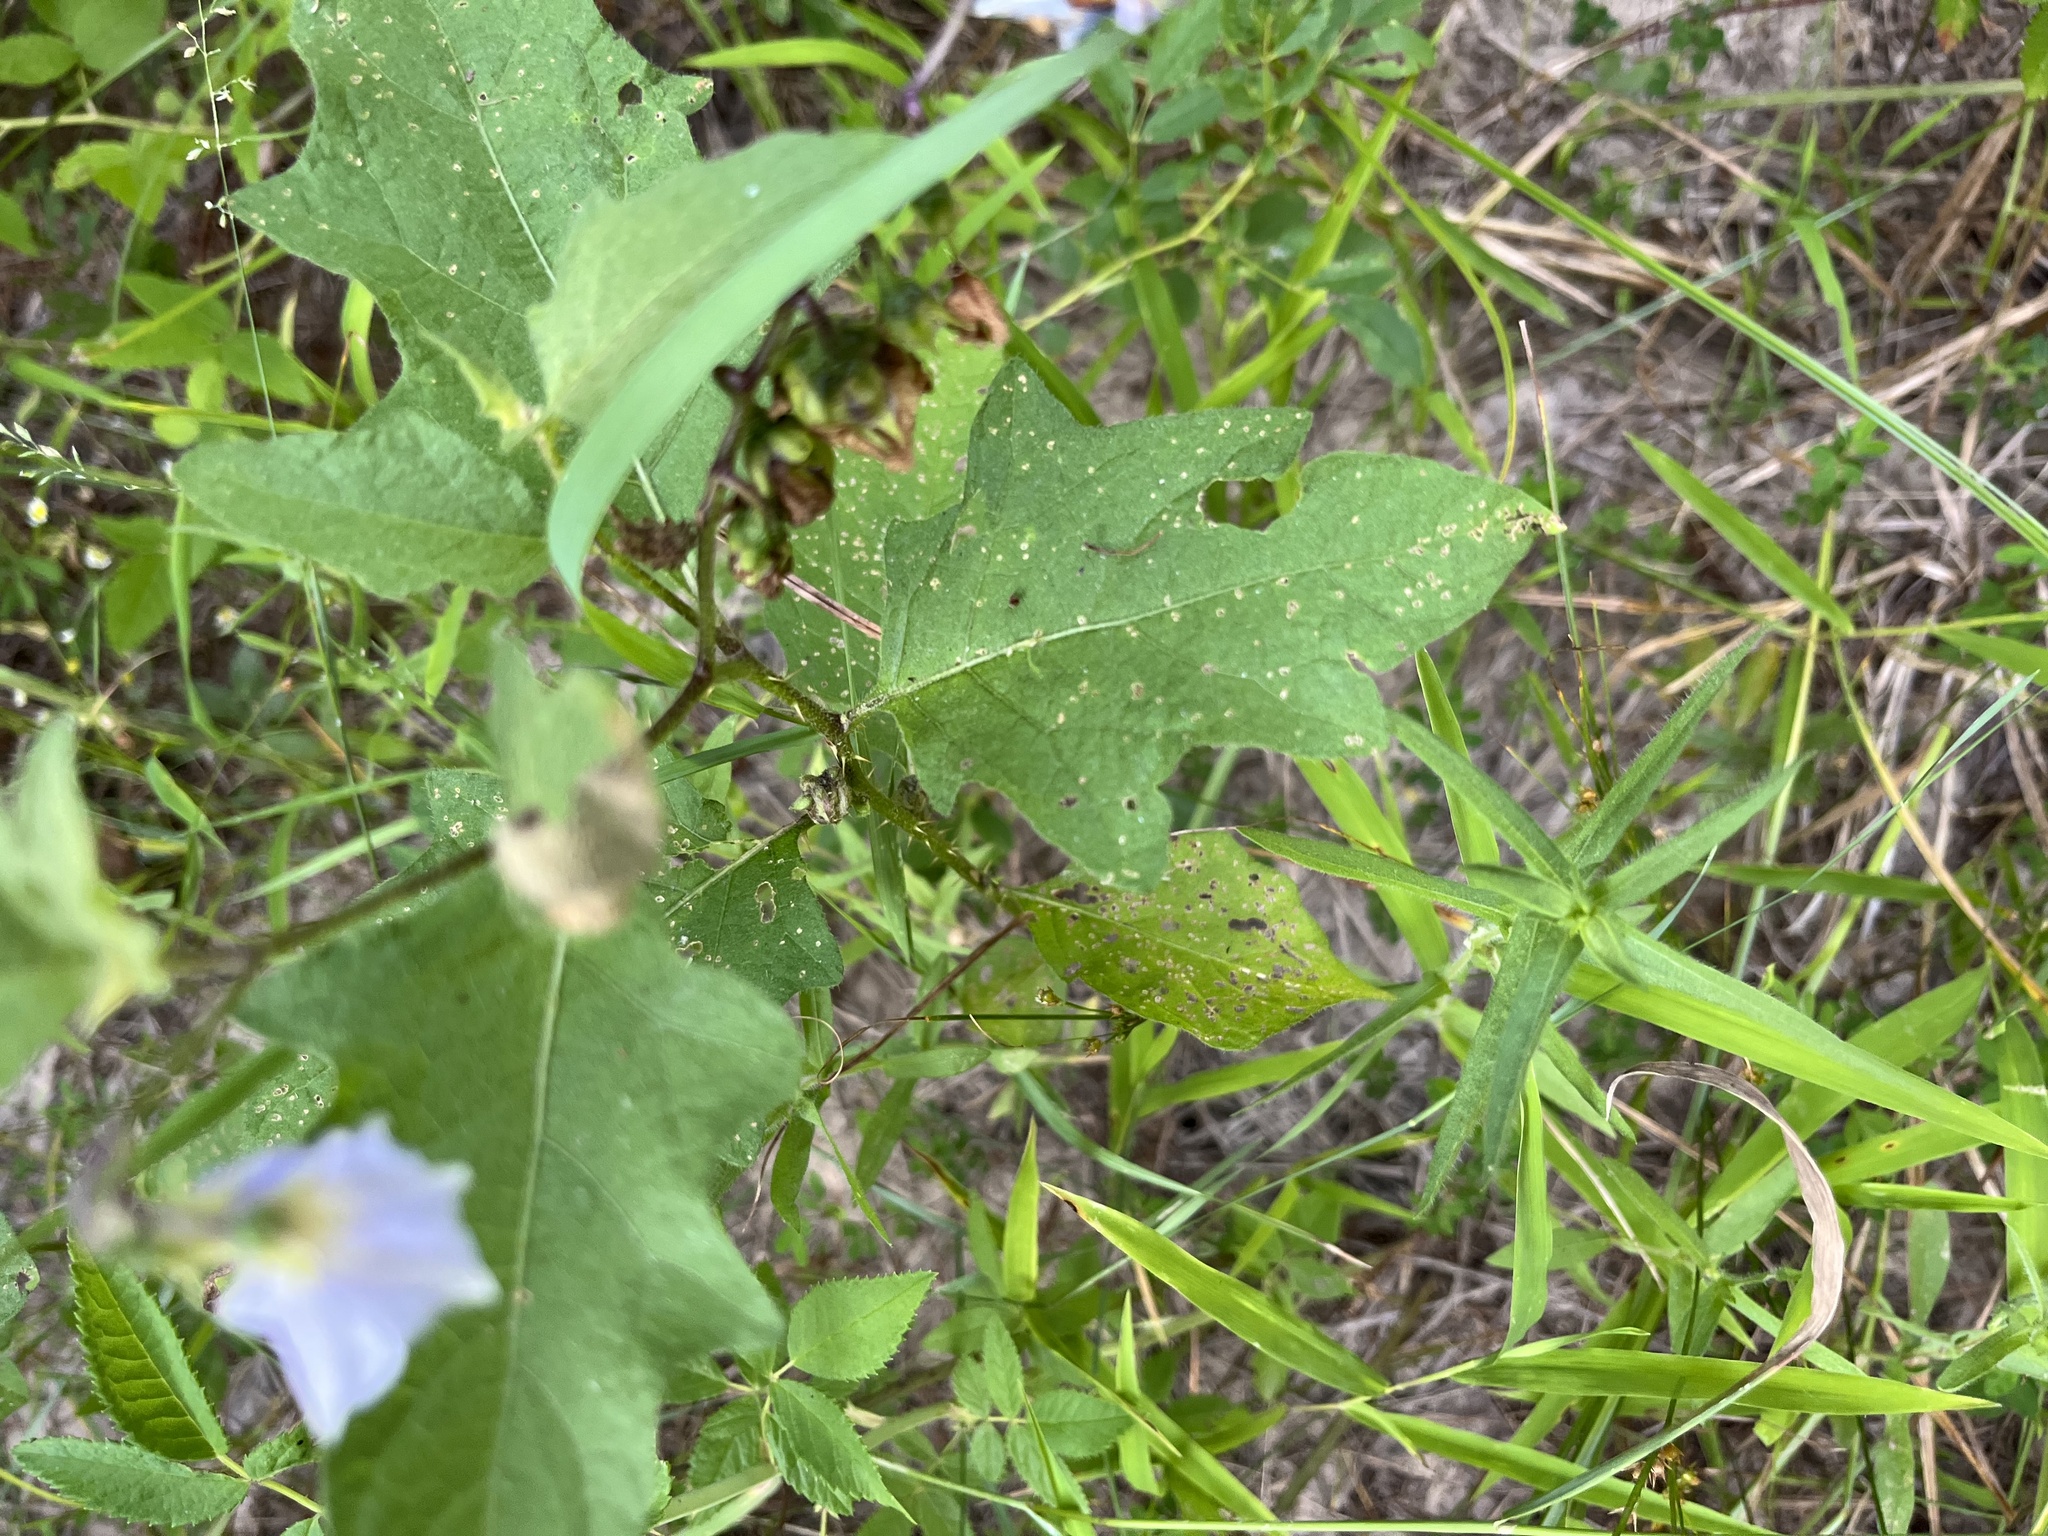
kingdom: Plantae
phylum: Tracheophyta
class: Magnoliopsida
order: Solanales
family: Solanaceae
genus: Solanum
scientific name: Solanum carolinense
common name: Horse-nettle
